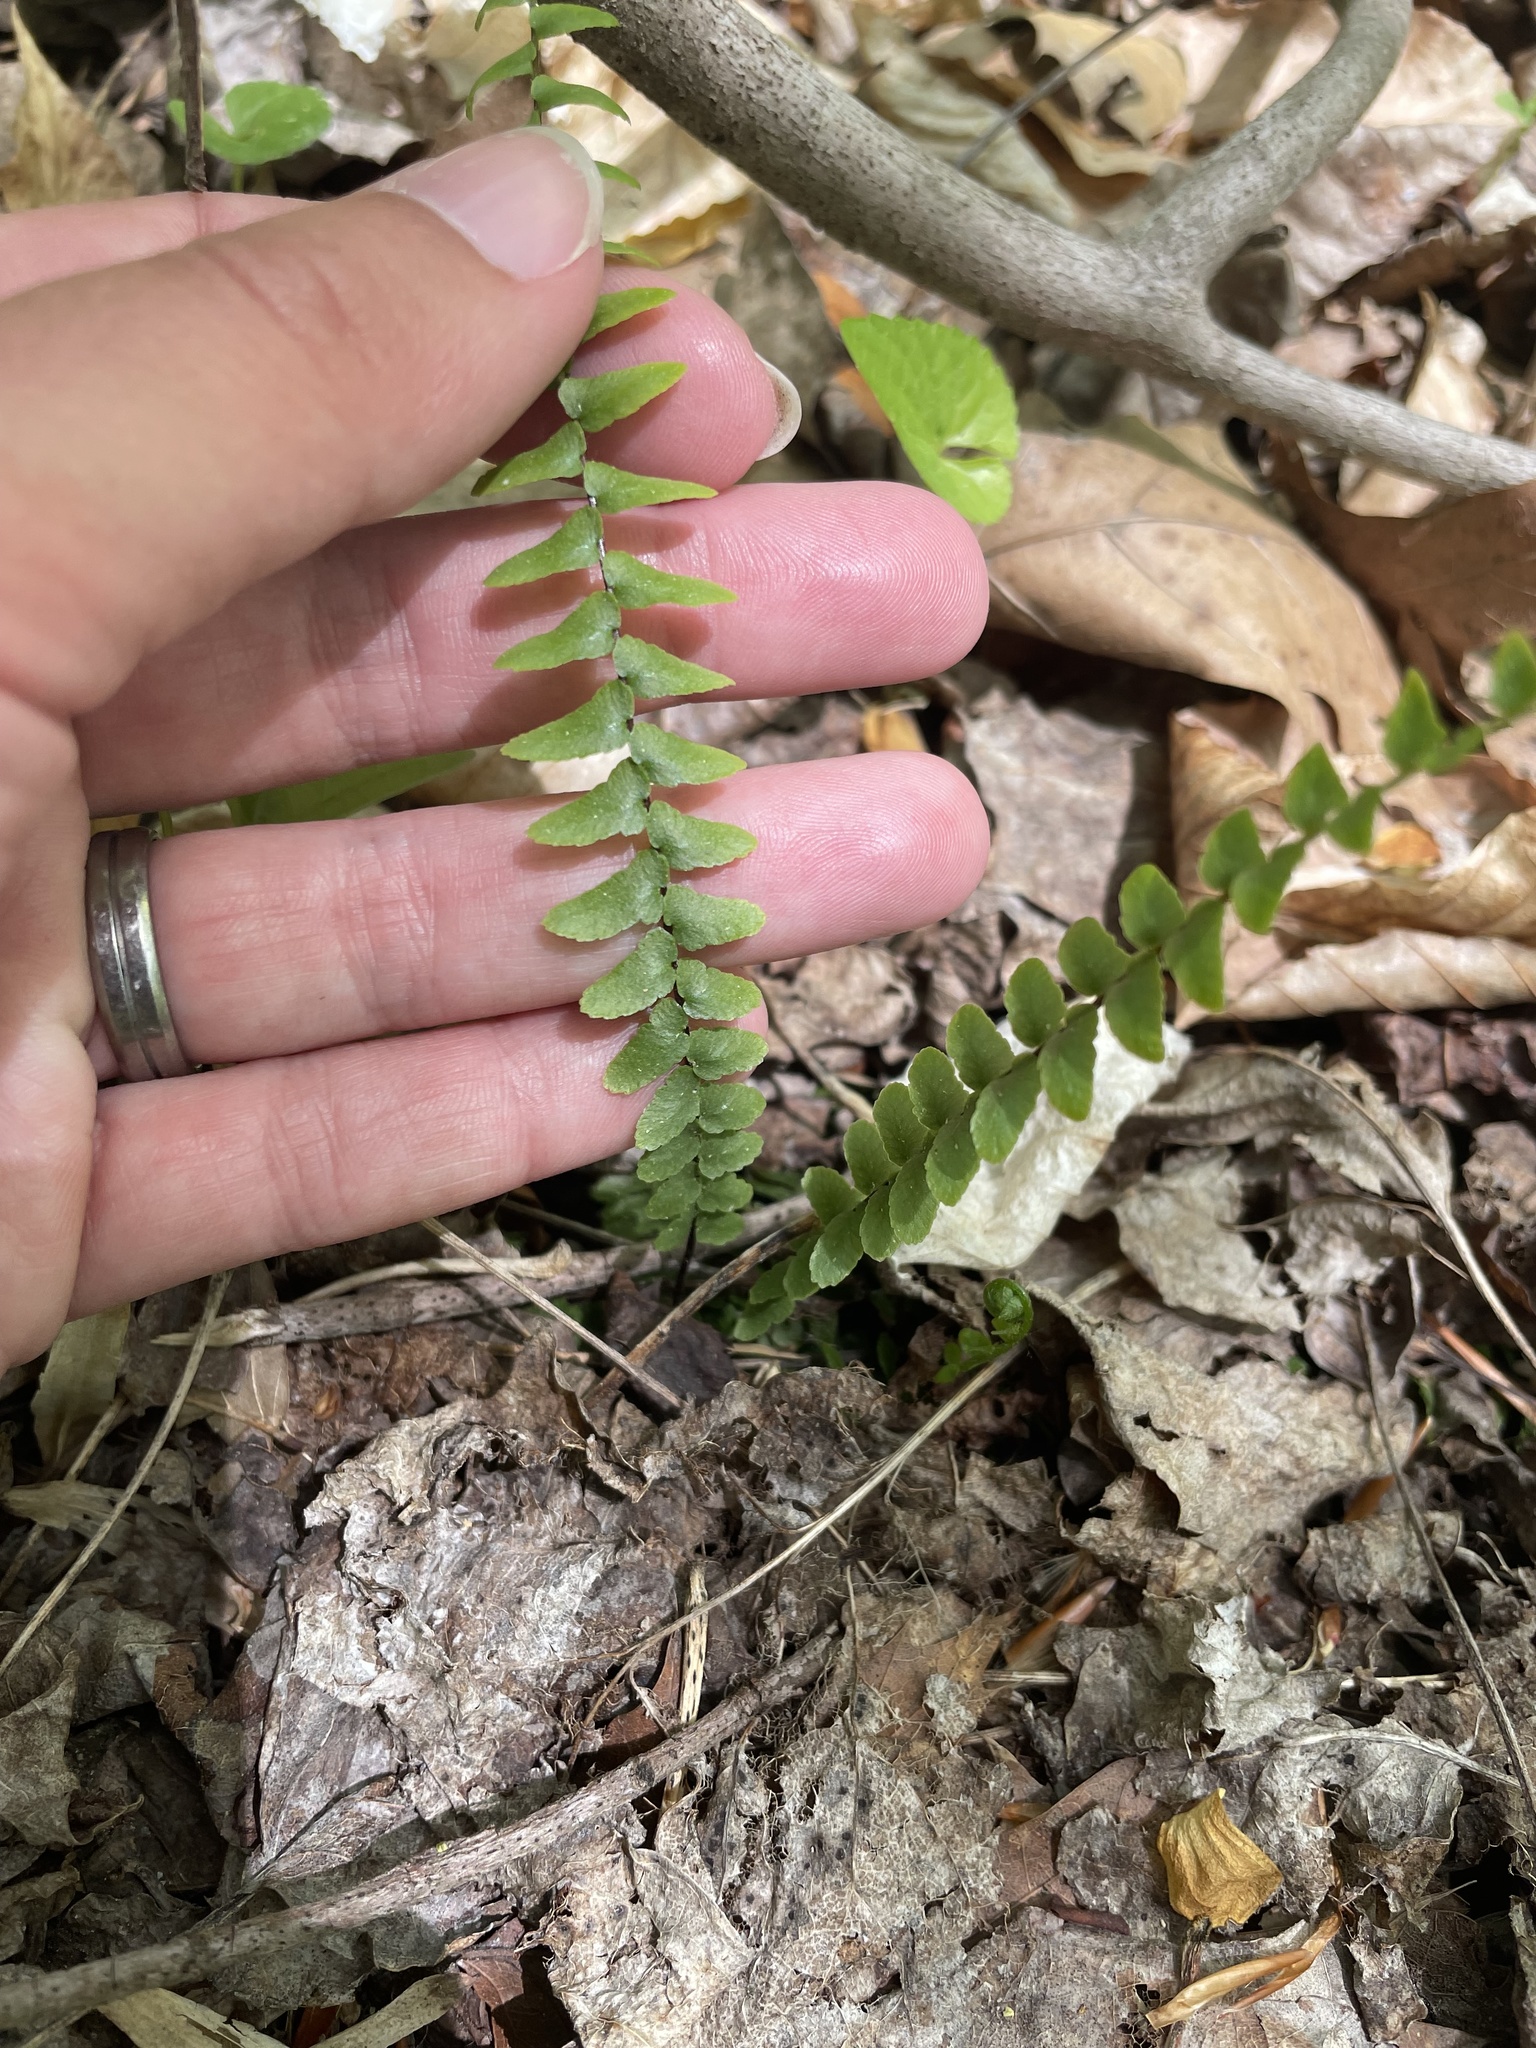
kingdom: Plantae
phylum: Tracheophyta
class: Polypodiopsida
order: Polypodiales
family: Aspleniaceae
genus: Asplenium
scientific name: Asplenium platyneuron
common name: Ebony spleenwort
